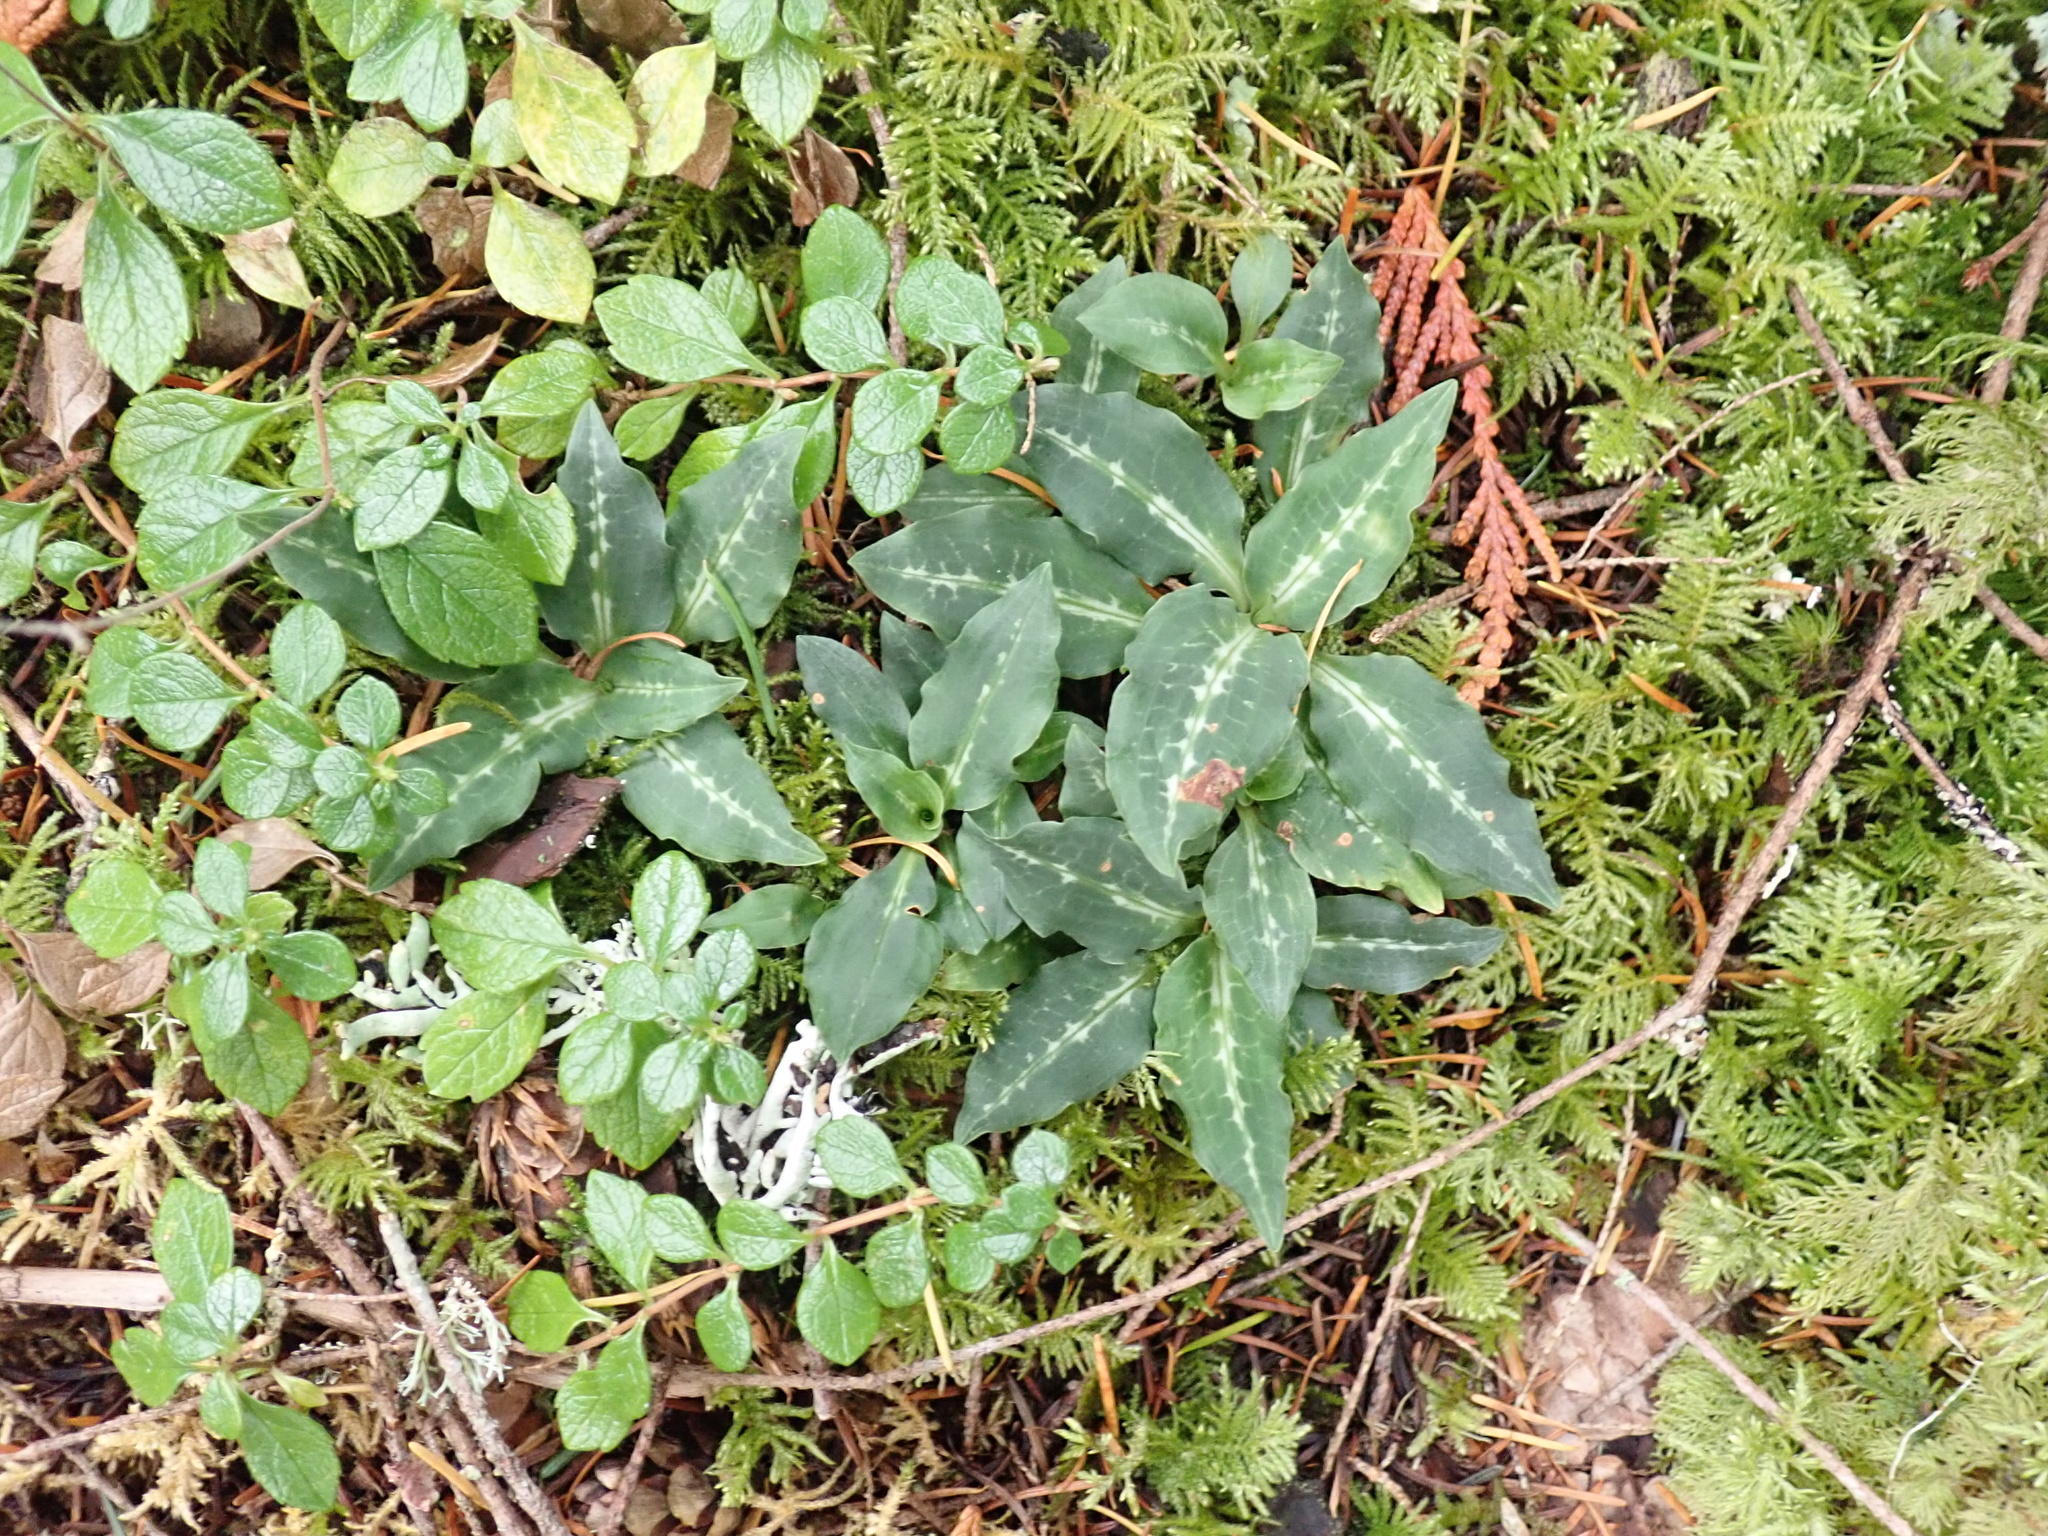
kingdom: Plantae
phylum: Tracheophyta
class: Liliopsida
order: Asparagales
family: Orchidaceae
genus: Goodyera
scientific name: Goodyera oblongifolia
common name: Giant rattlesnake-plantain
